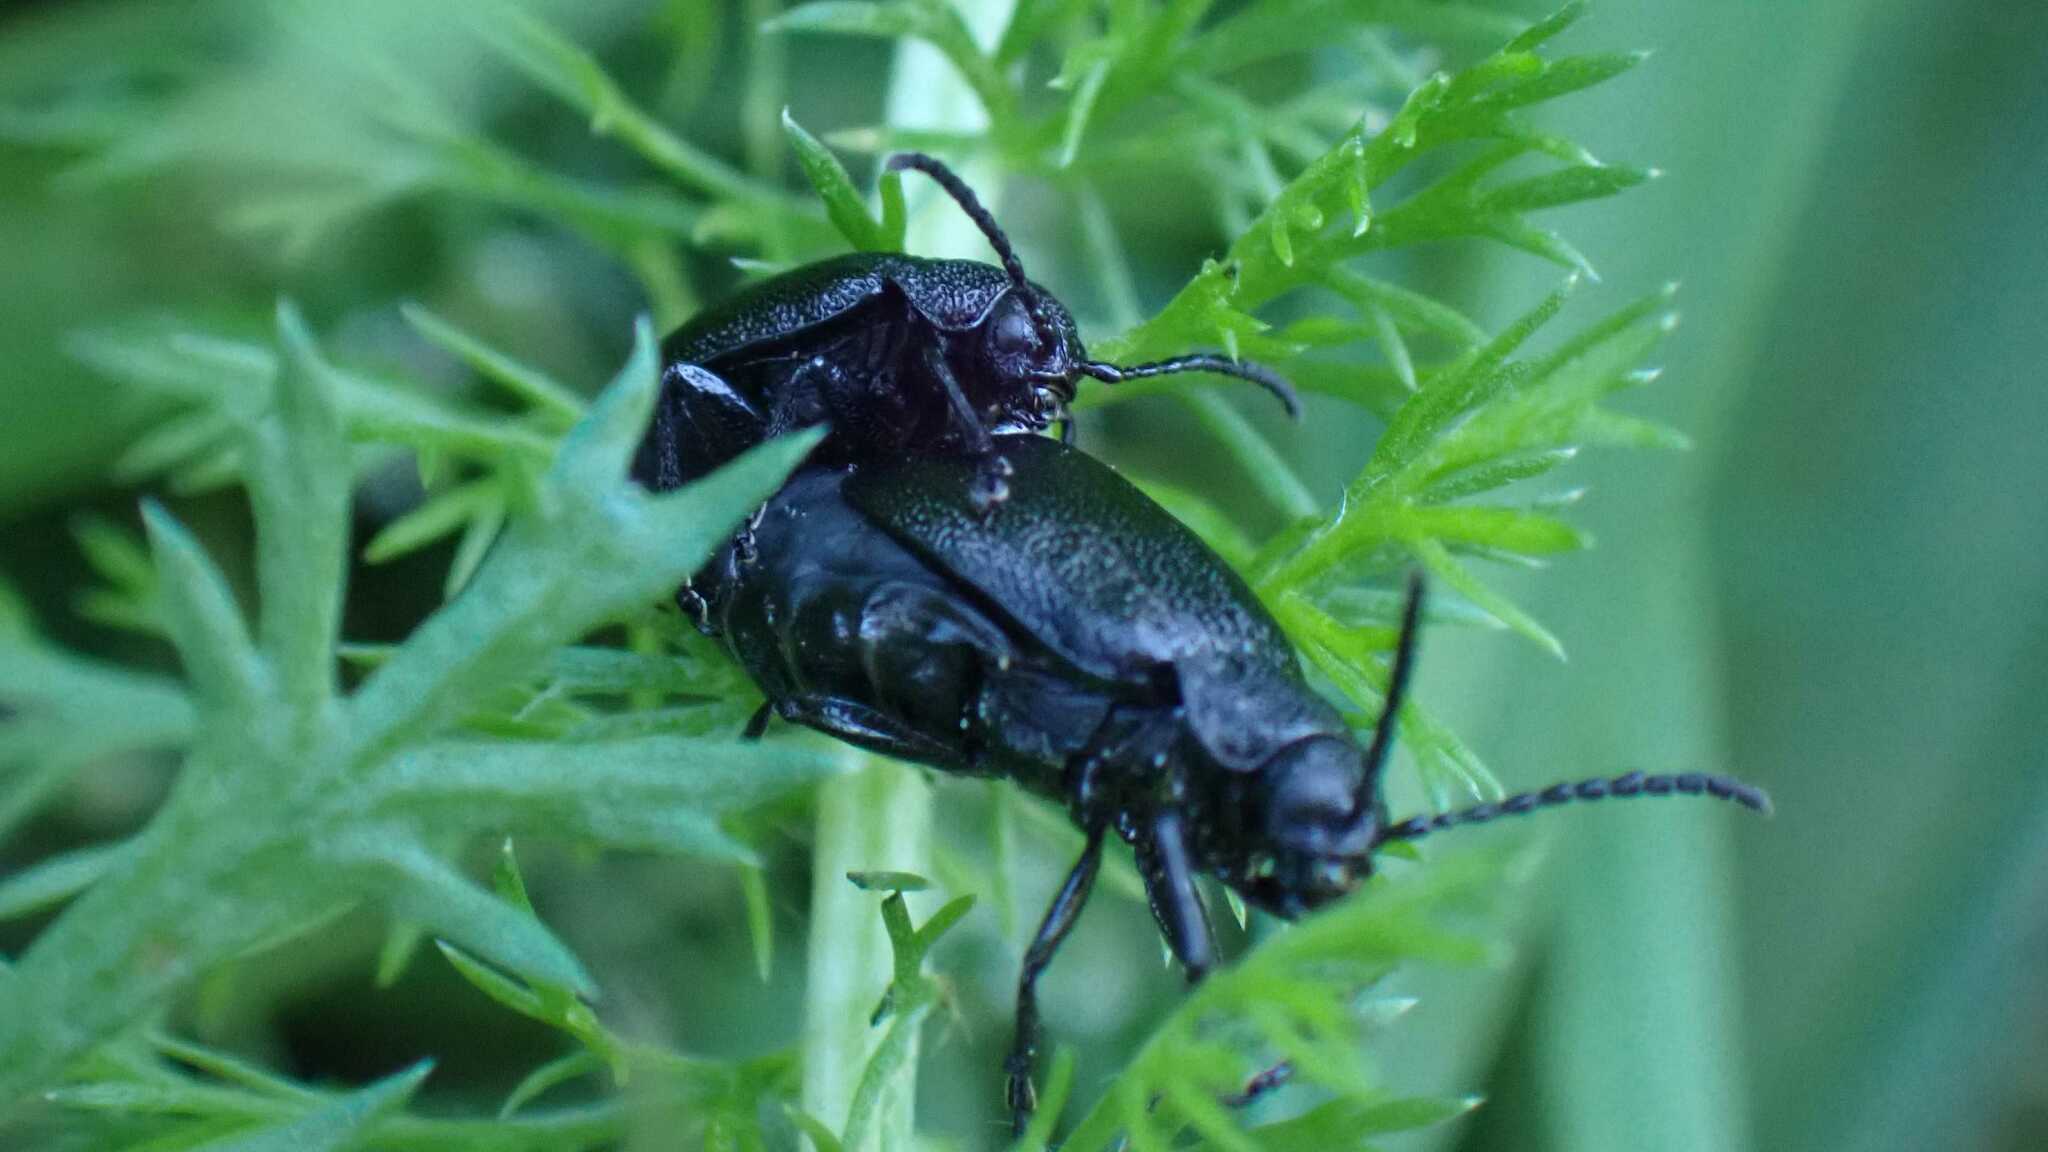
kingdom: Animalia
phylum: Arthropoda
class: Insecta
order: Coleoptera
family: Chrysomelidae
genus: Galeruca
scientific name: Galeruca tanaceti
